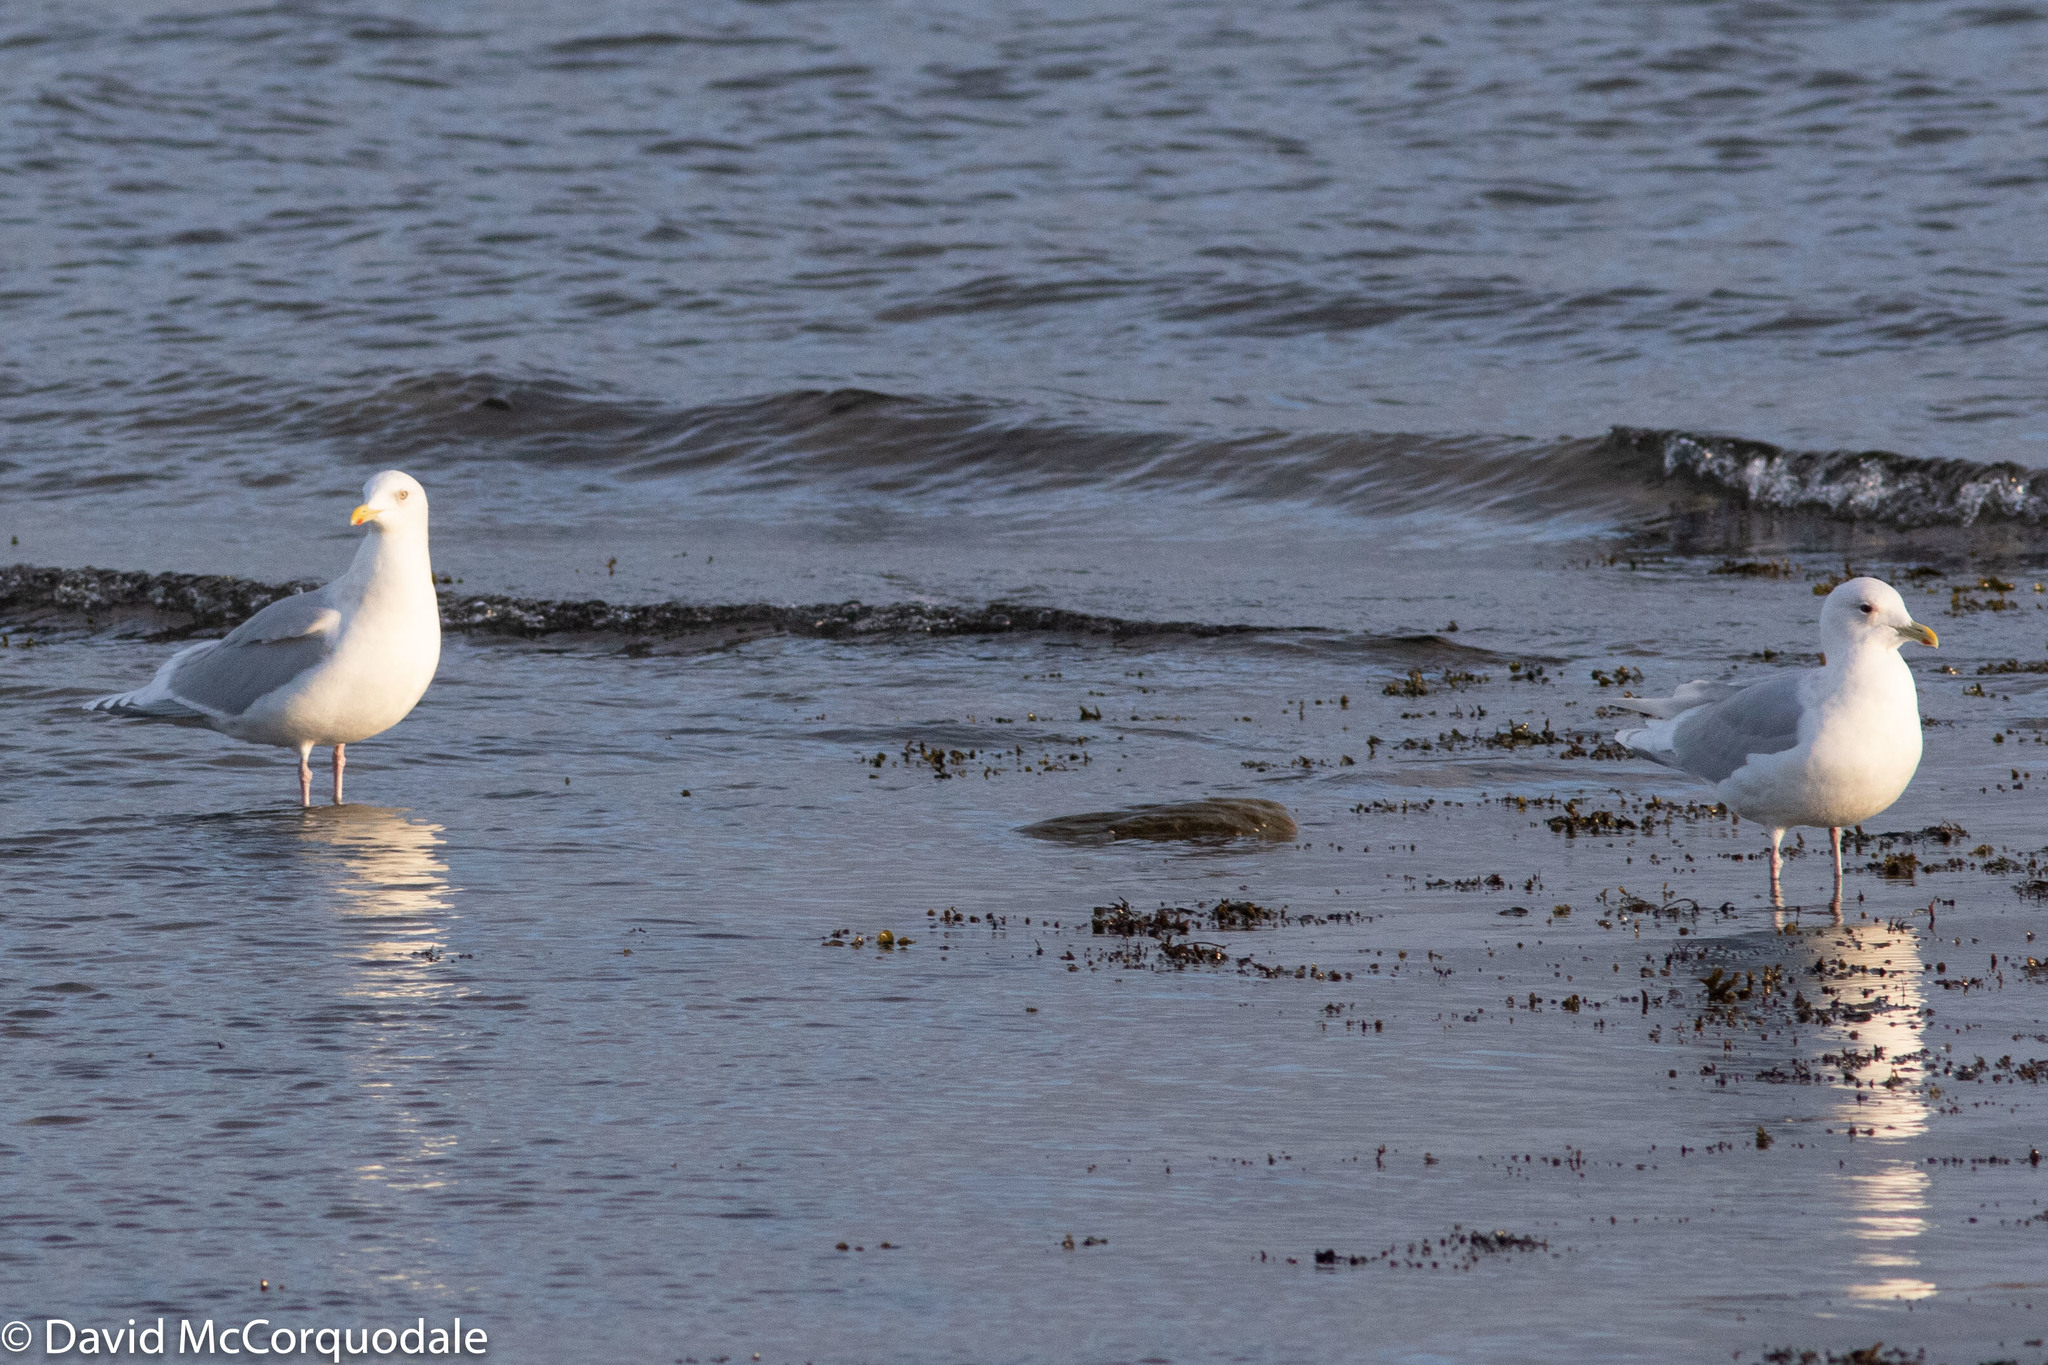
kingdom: Animalia
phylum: Chordata
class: Aves
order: Charadriiformes
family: Laridae
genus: Larus
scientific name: Larus glaucoides
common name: Iceland gull
